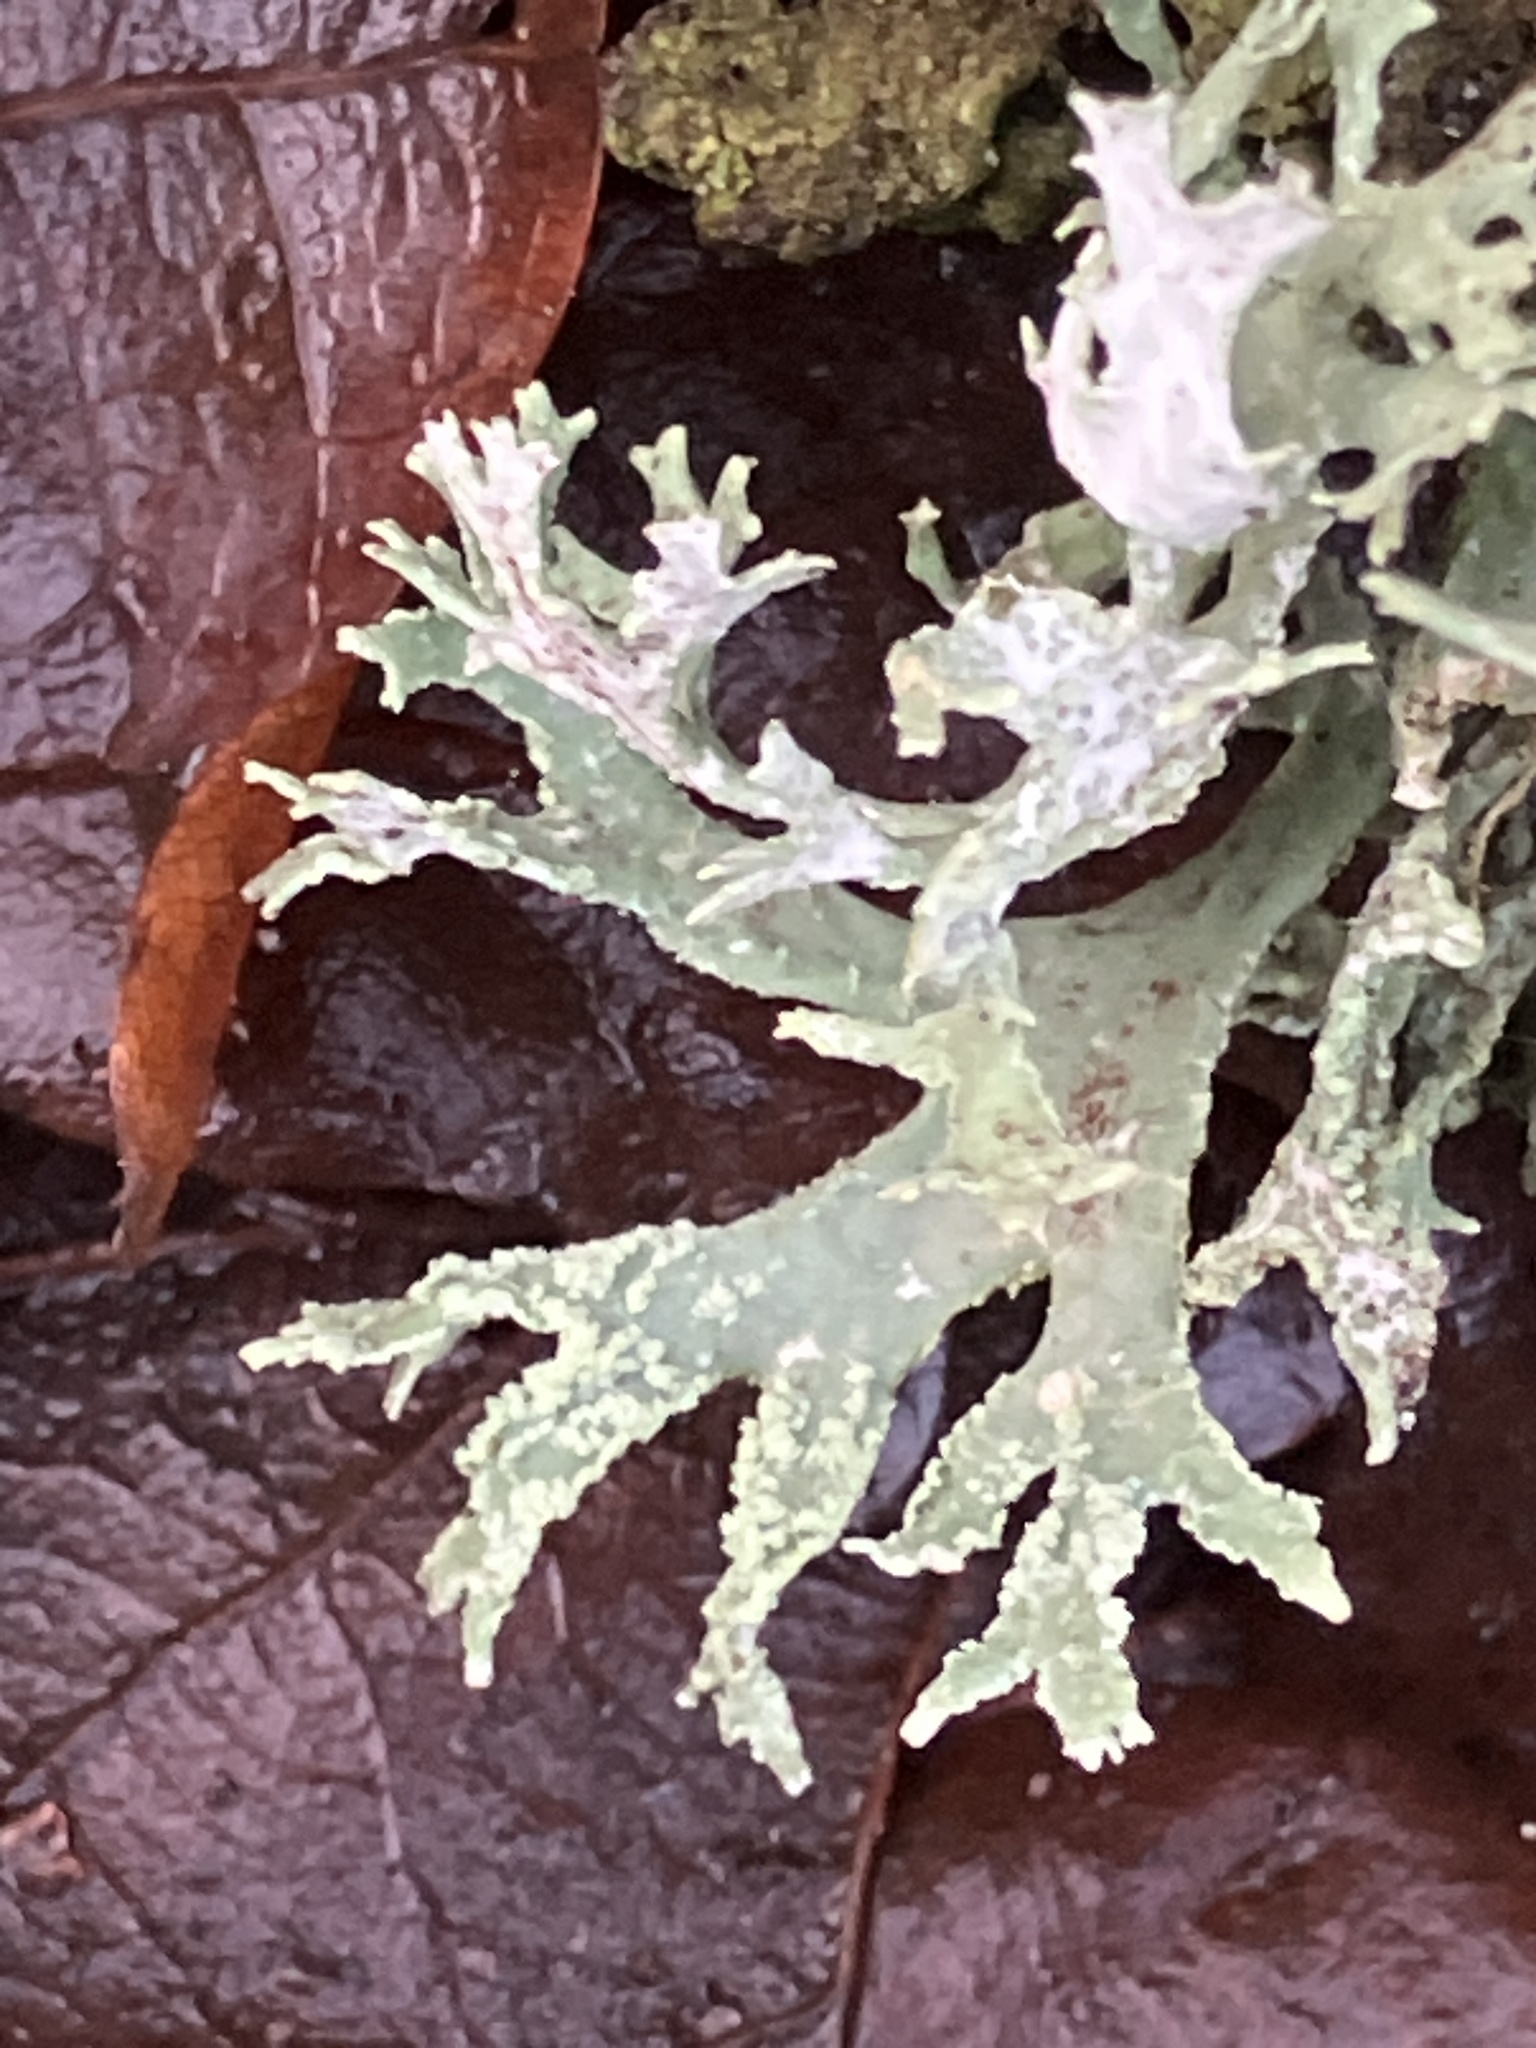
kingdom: Fungi
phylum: Ascomycota
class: Lecanoromycetes
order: Lecanorales
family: Parmeliaceae
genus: Evernia
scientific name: Evernia prunastri
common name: Oak moss
